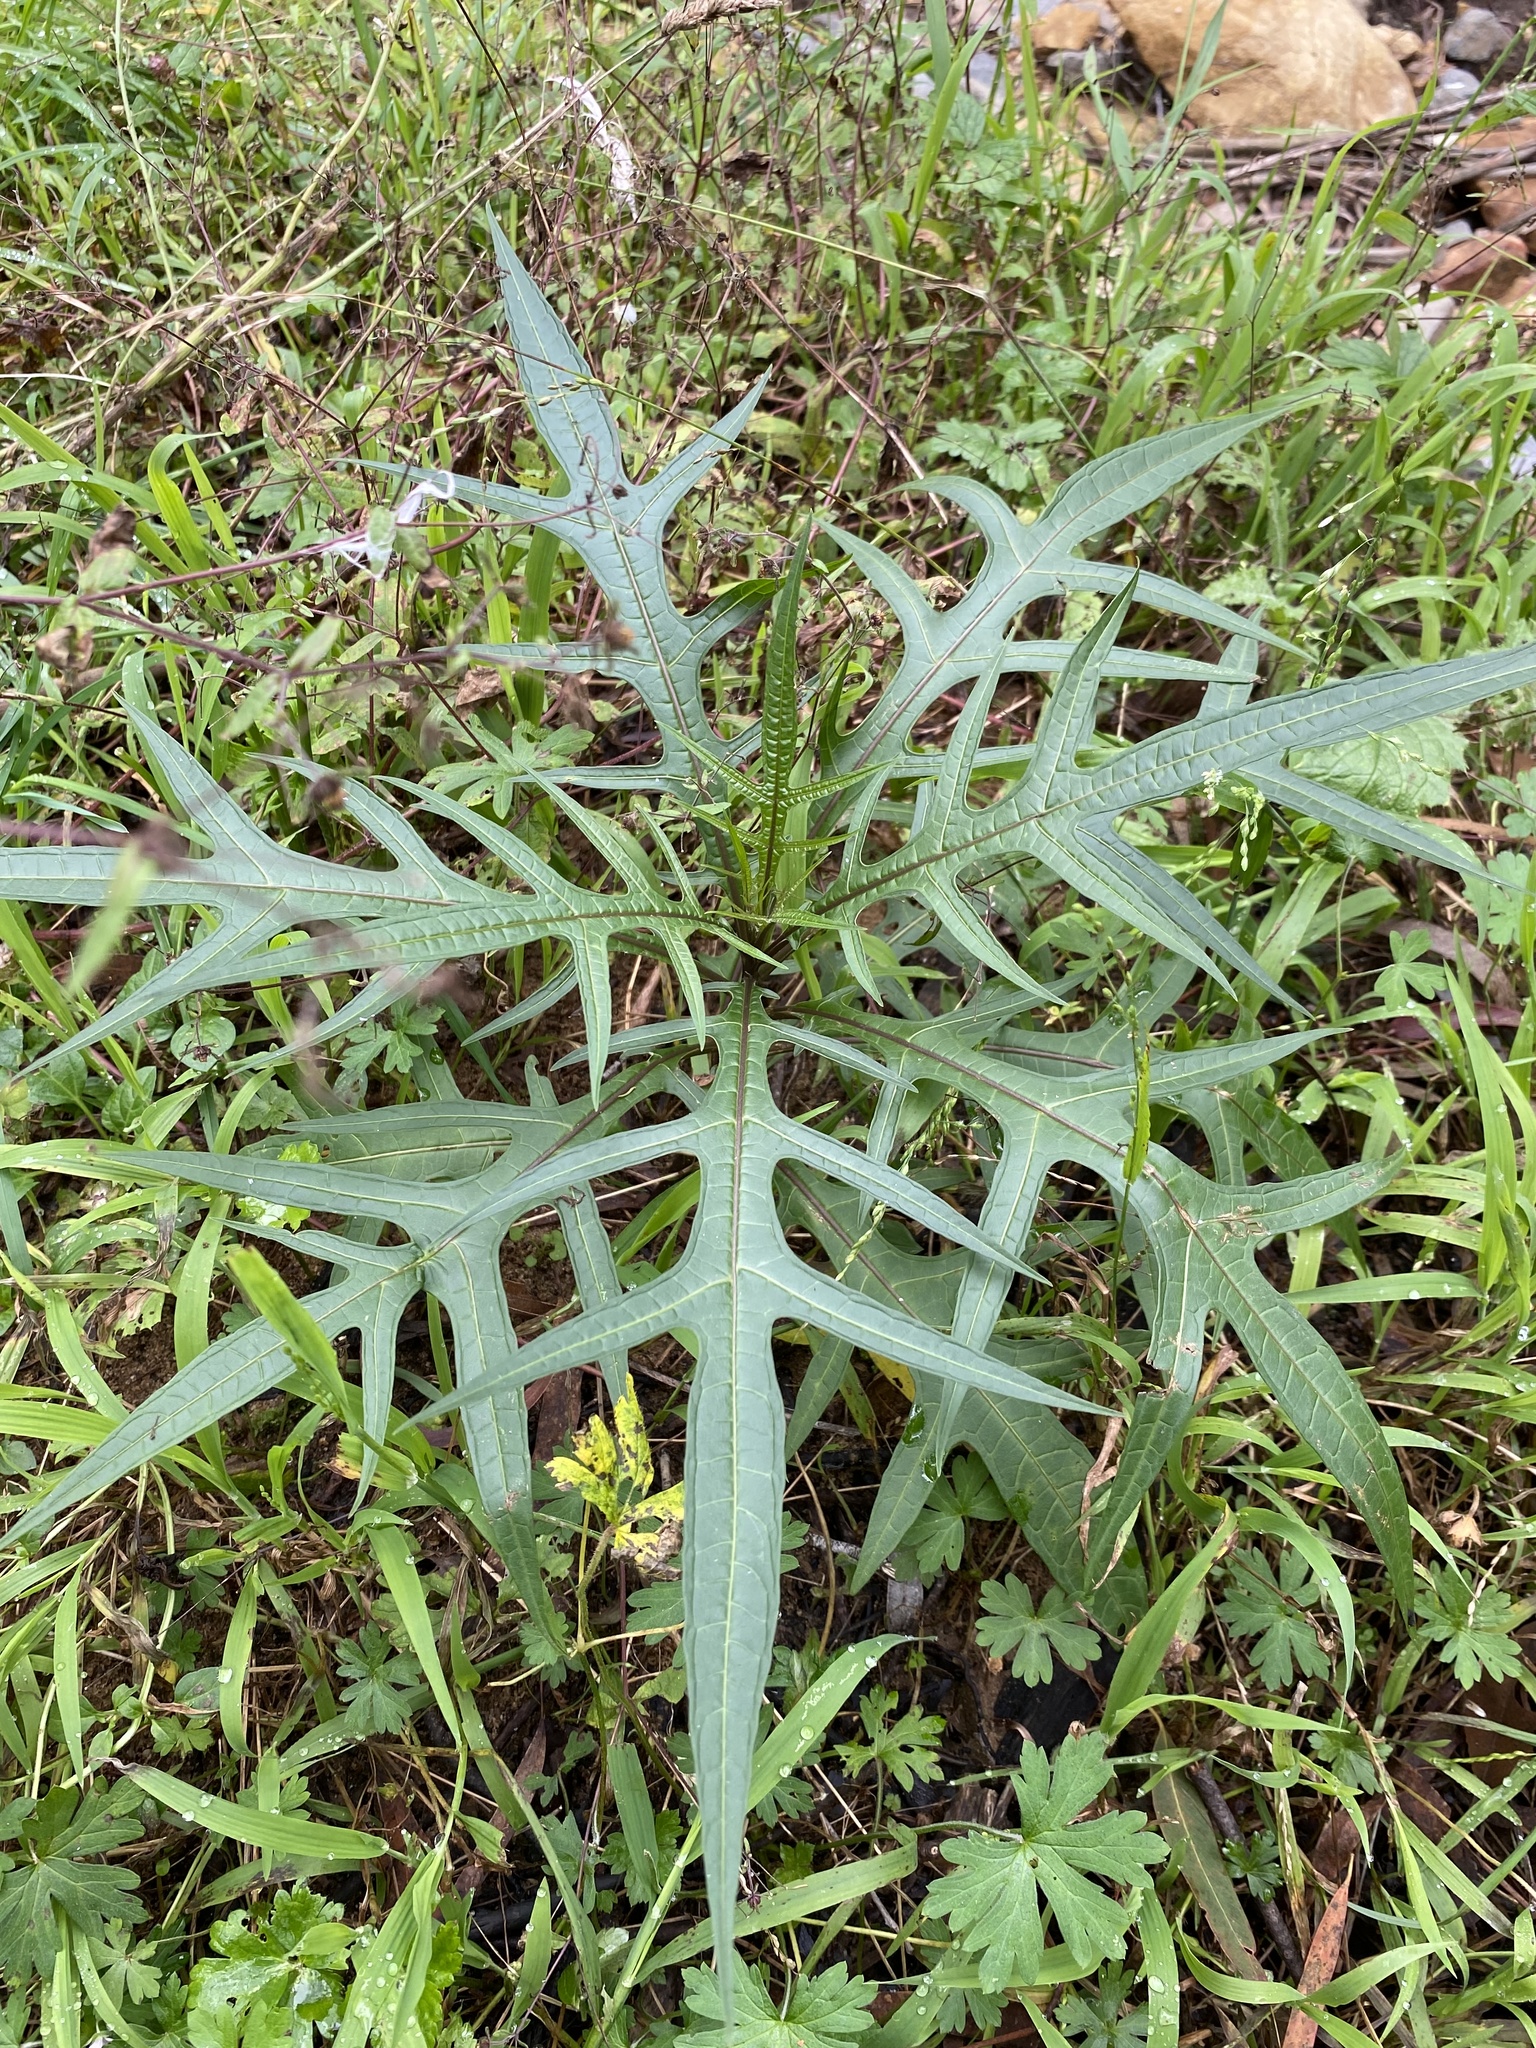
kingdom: Plantae
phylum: Tracheophyta
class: Magnoliopsida
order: Solanales
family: Solanaceae
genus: Solanum
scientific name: Solanum
